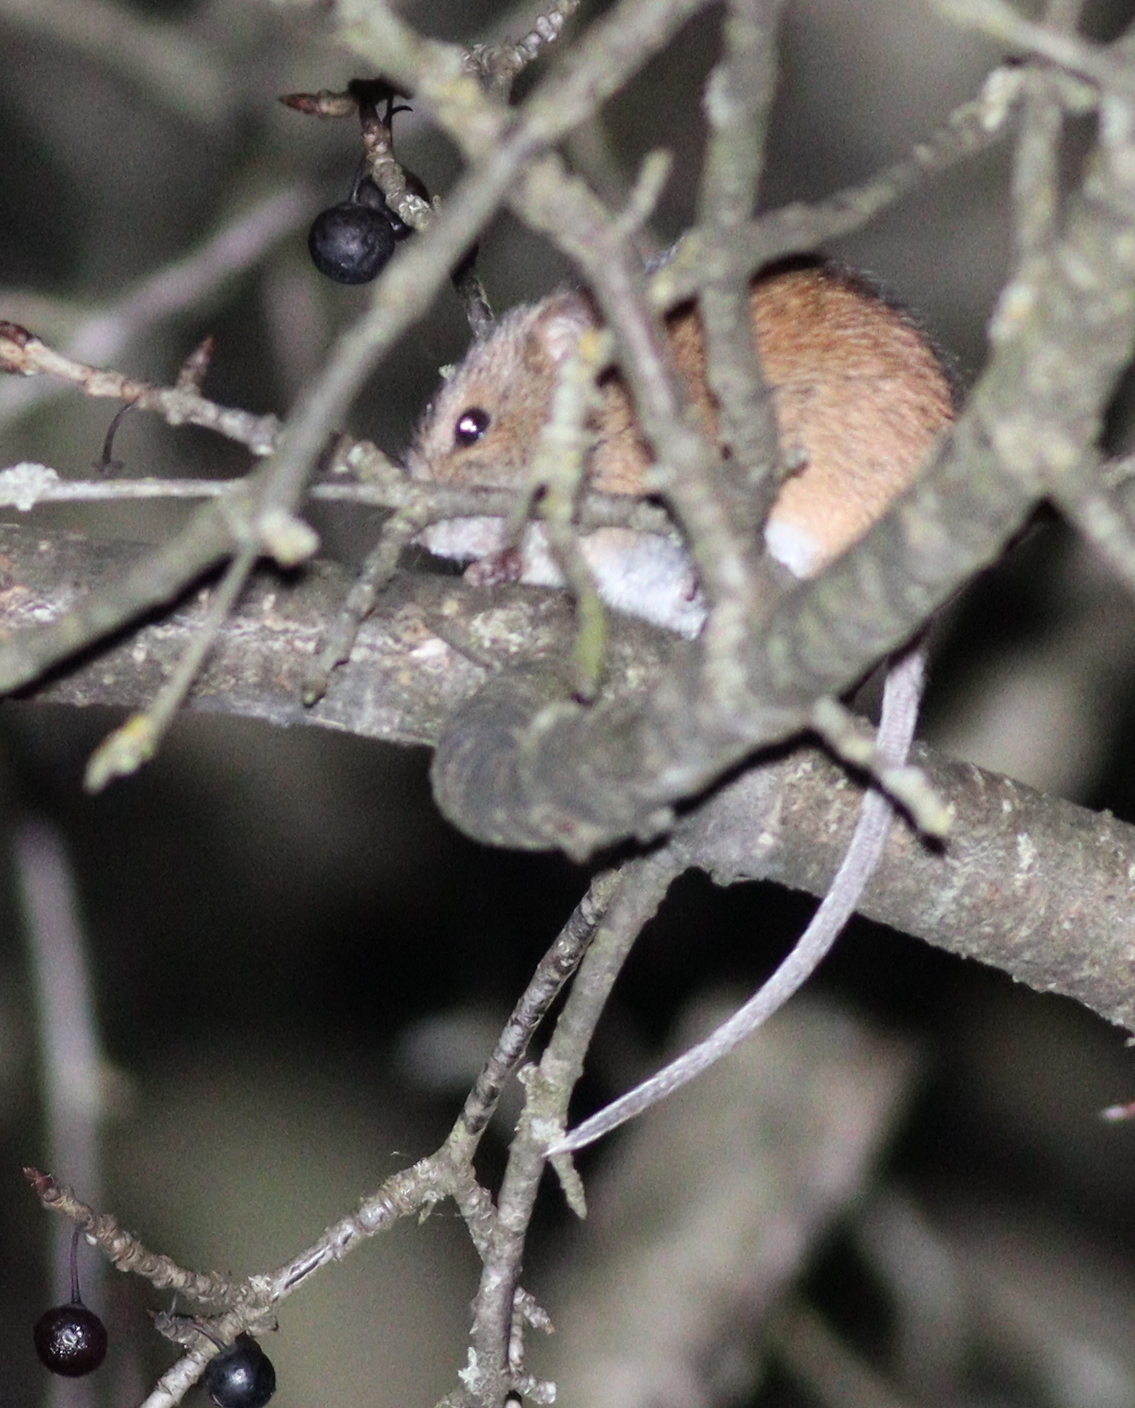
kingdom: Animalia
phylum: Chordata
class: Mammalia
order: Rodentia
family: Muridae
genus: Apodemus
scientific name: Apodemus agrarius
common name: Striped field mouse
